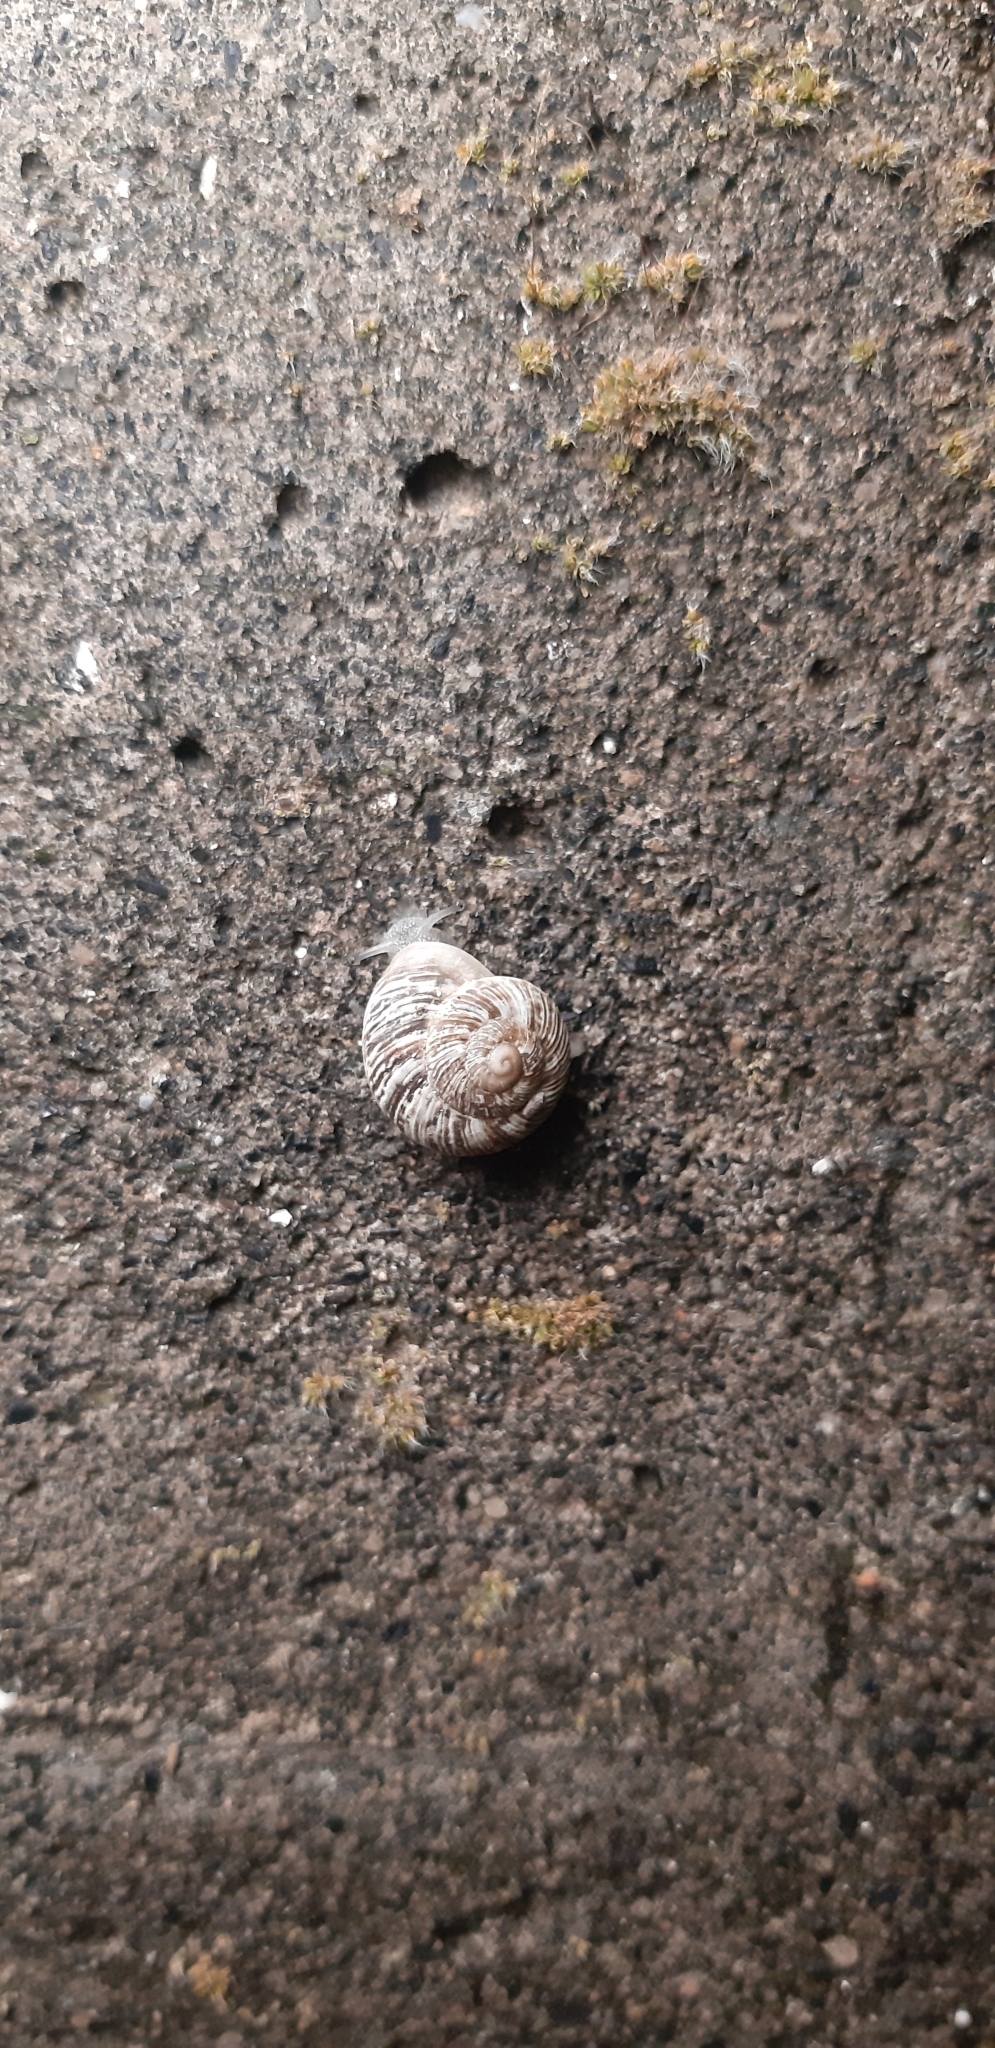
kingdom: Animalia
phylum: Mollusca
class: Gastropoda
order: Stylommatophora
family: Helicidae
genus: Marmorana
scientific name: Marmorana muralis
